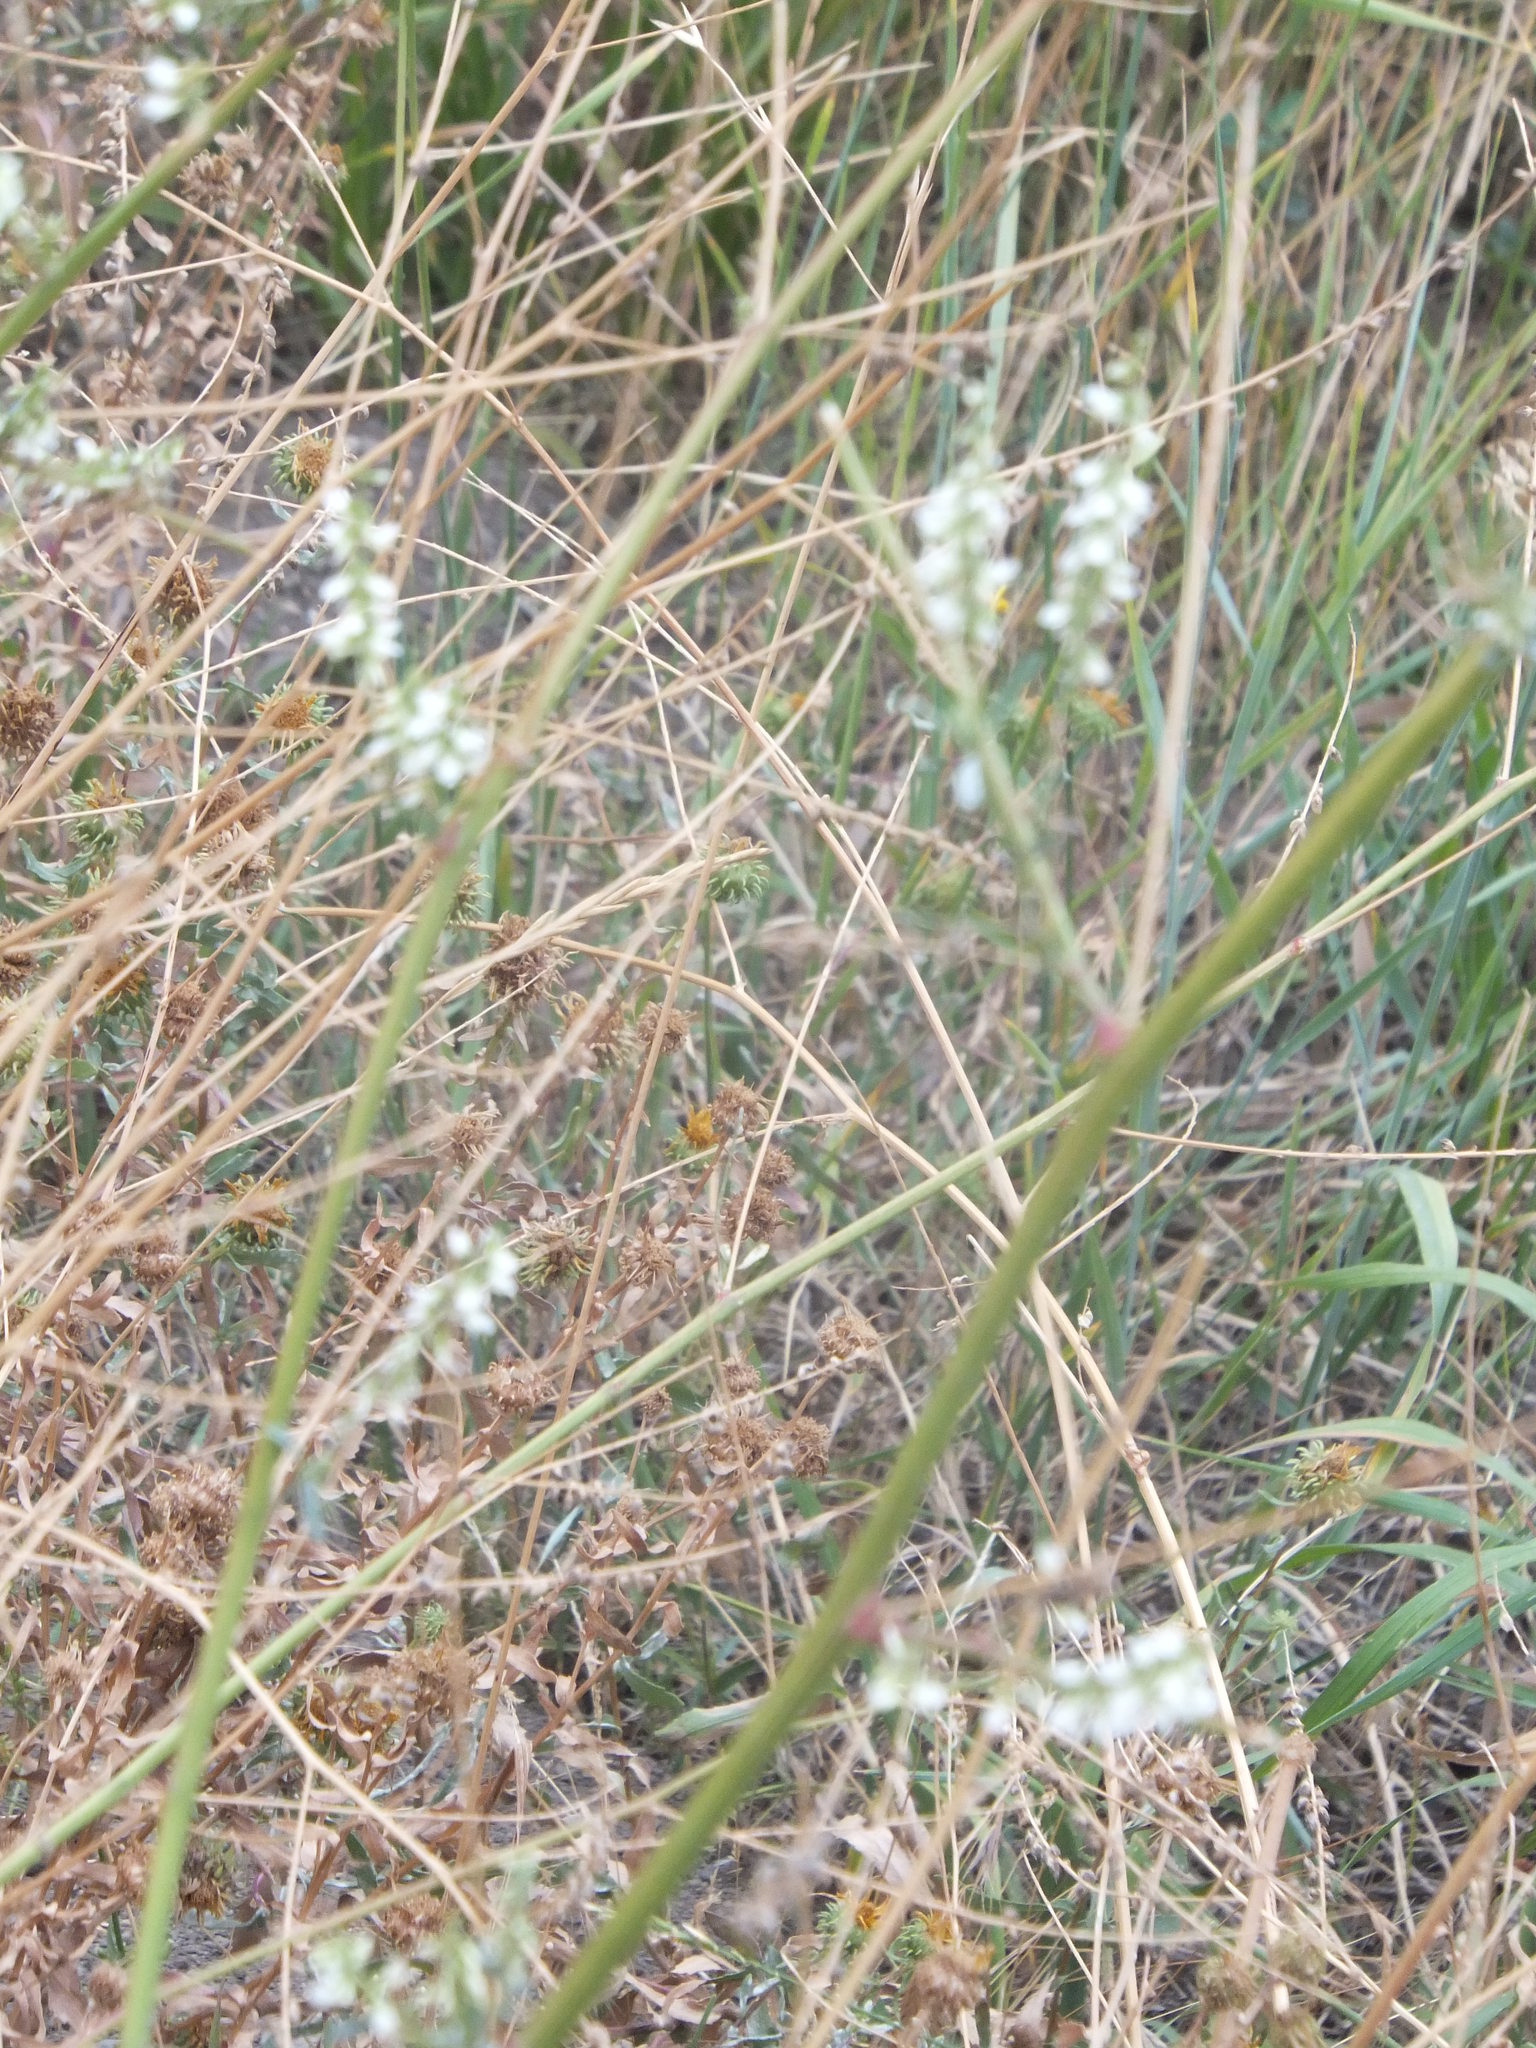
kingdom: Plantae
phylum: Tracheophyta
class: Magnoliopsida
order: Fabales
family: Fabaceae
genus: Melilotus
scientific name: Melilotus albus
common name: White melilot
